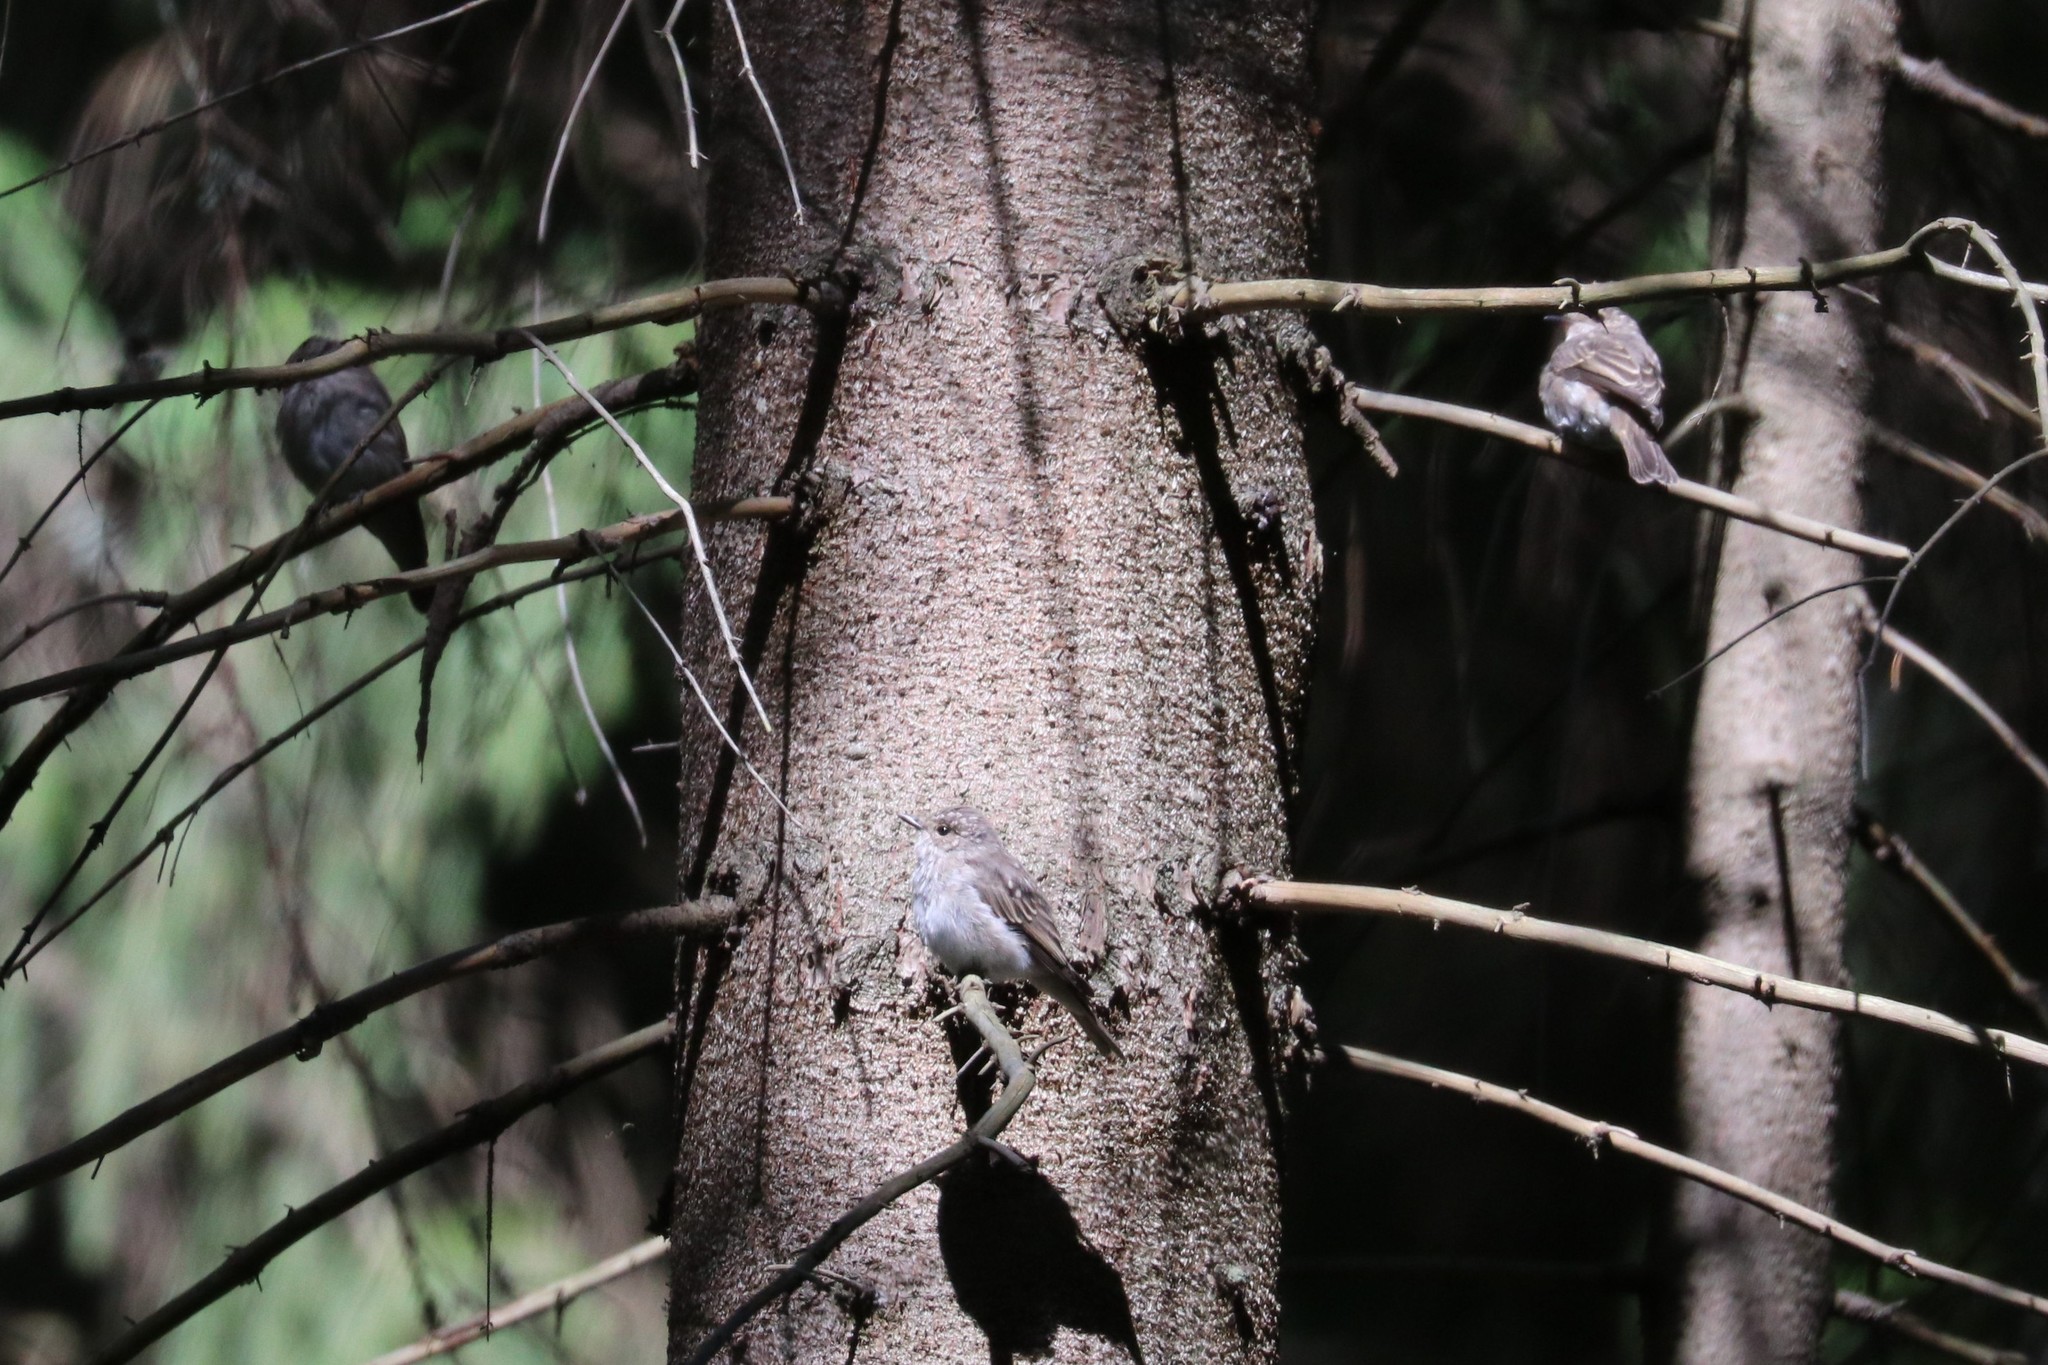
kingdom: Animalia
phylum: Chordata
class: Aves
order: Passeriformes
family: Muscicapidae
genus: Muscicapa
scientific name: Muscicapa striata
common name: Spotted flycatcher
